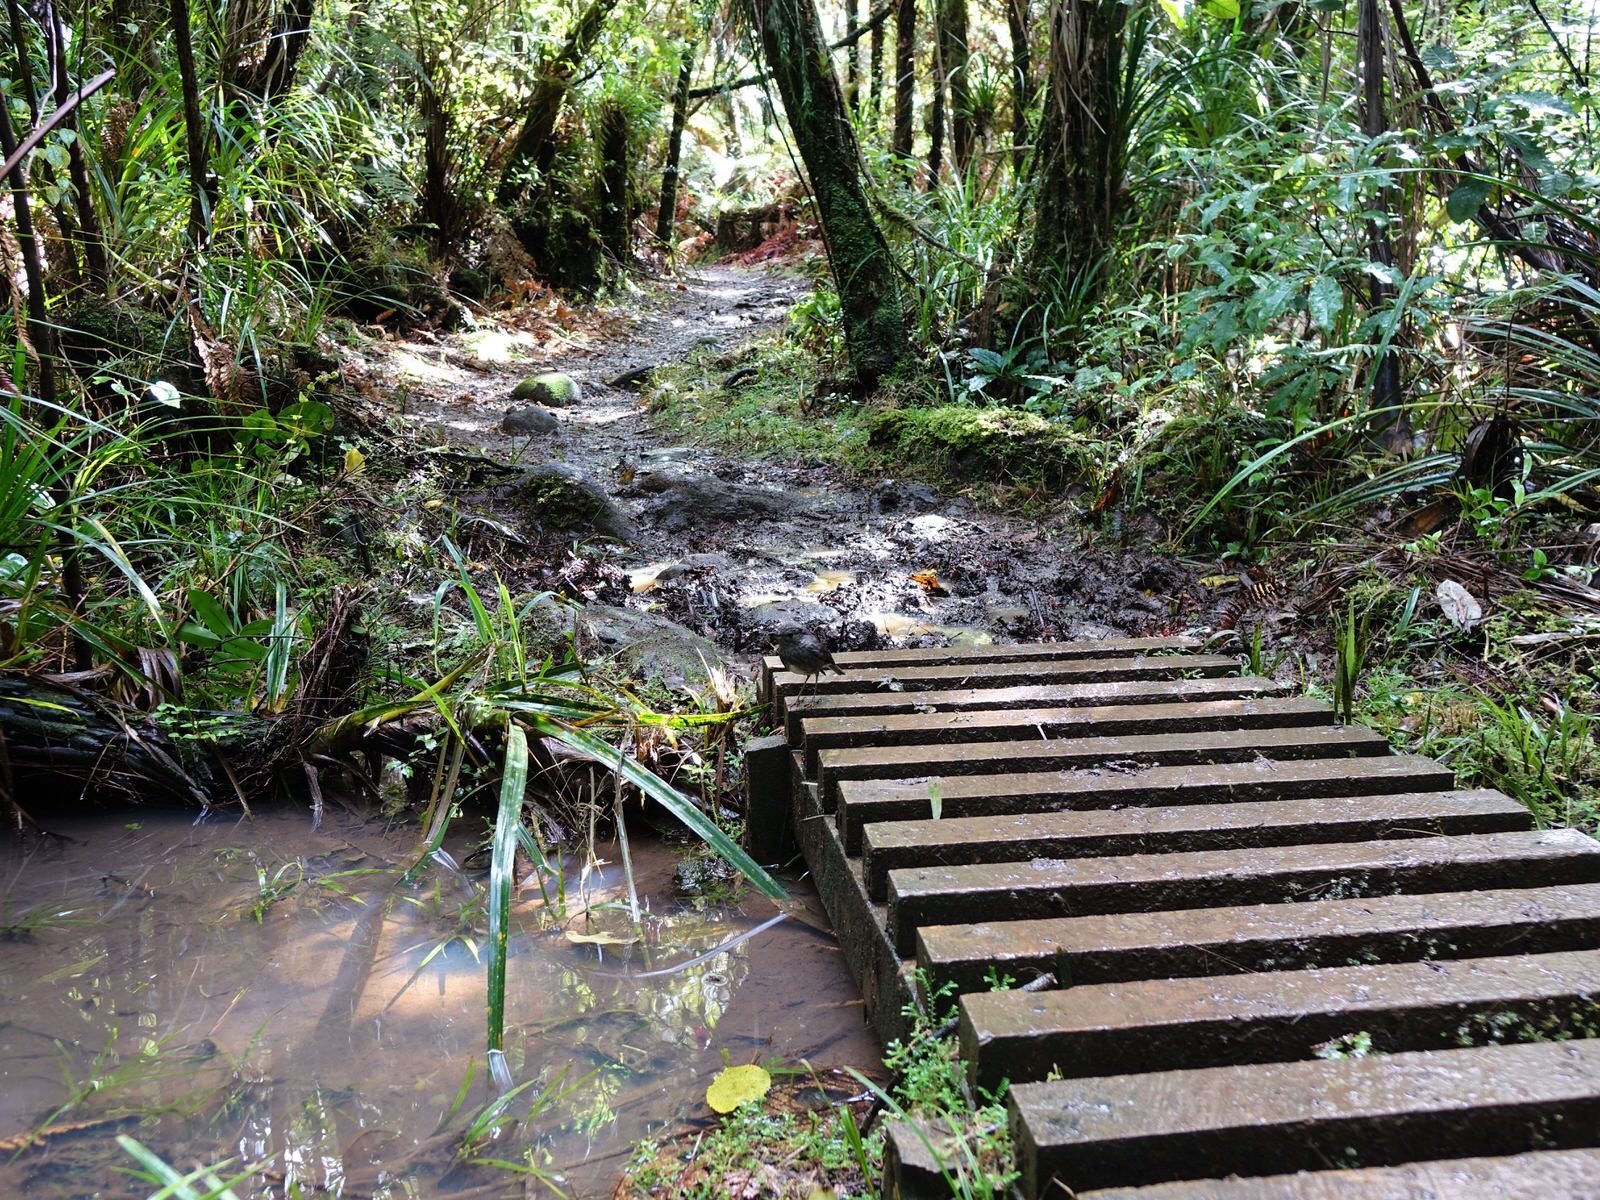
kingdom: Animalia
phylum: Chordata
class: Aves
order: Passeriformes
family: Petroicidae
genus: Petroica
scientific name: Petroica australis
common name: New zealand robin
